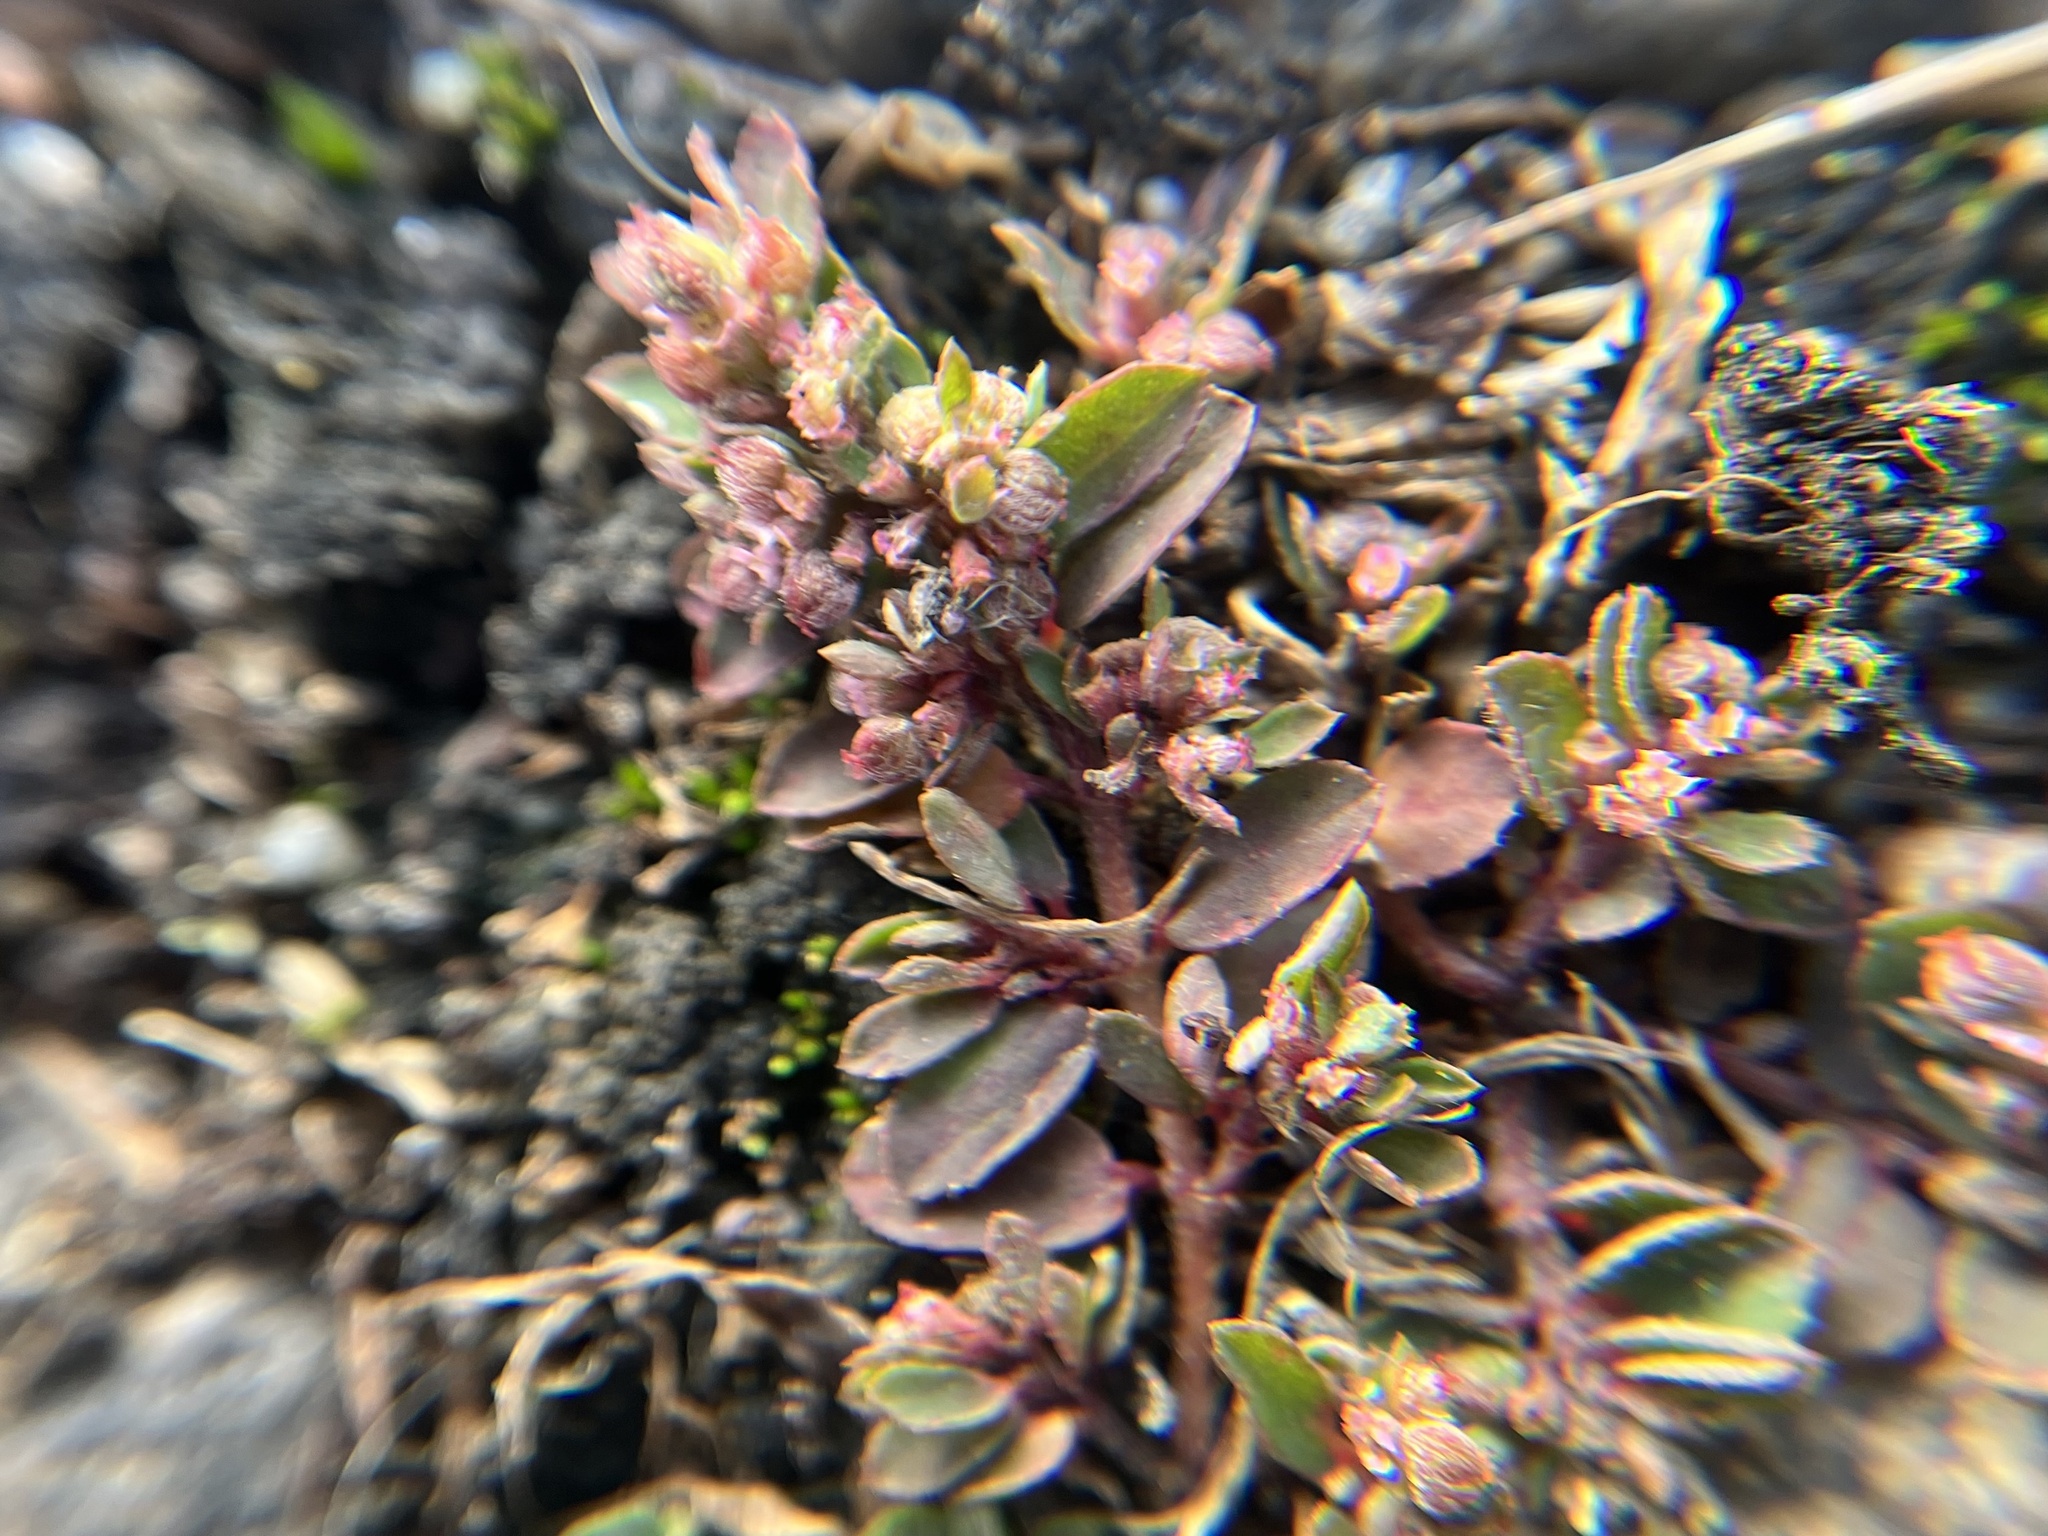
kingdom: Plantae
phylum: Tracheophyta
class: Magnoliopsida
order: Malpighiales
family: Euphorbiaceae
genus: Euphorbia
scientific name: Euphorbia maculata
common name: Spotted spurge
